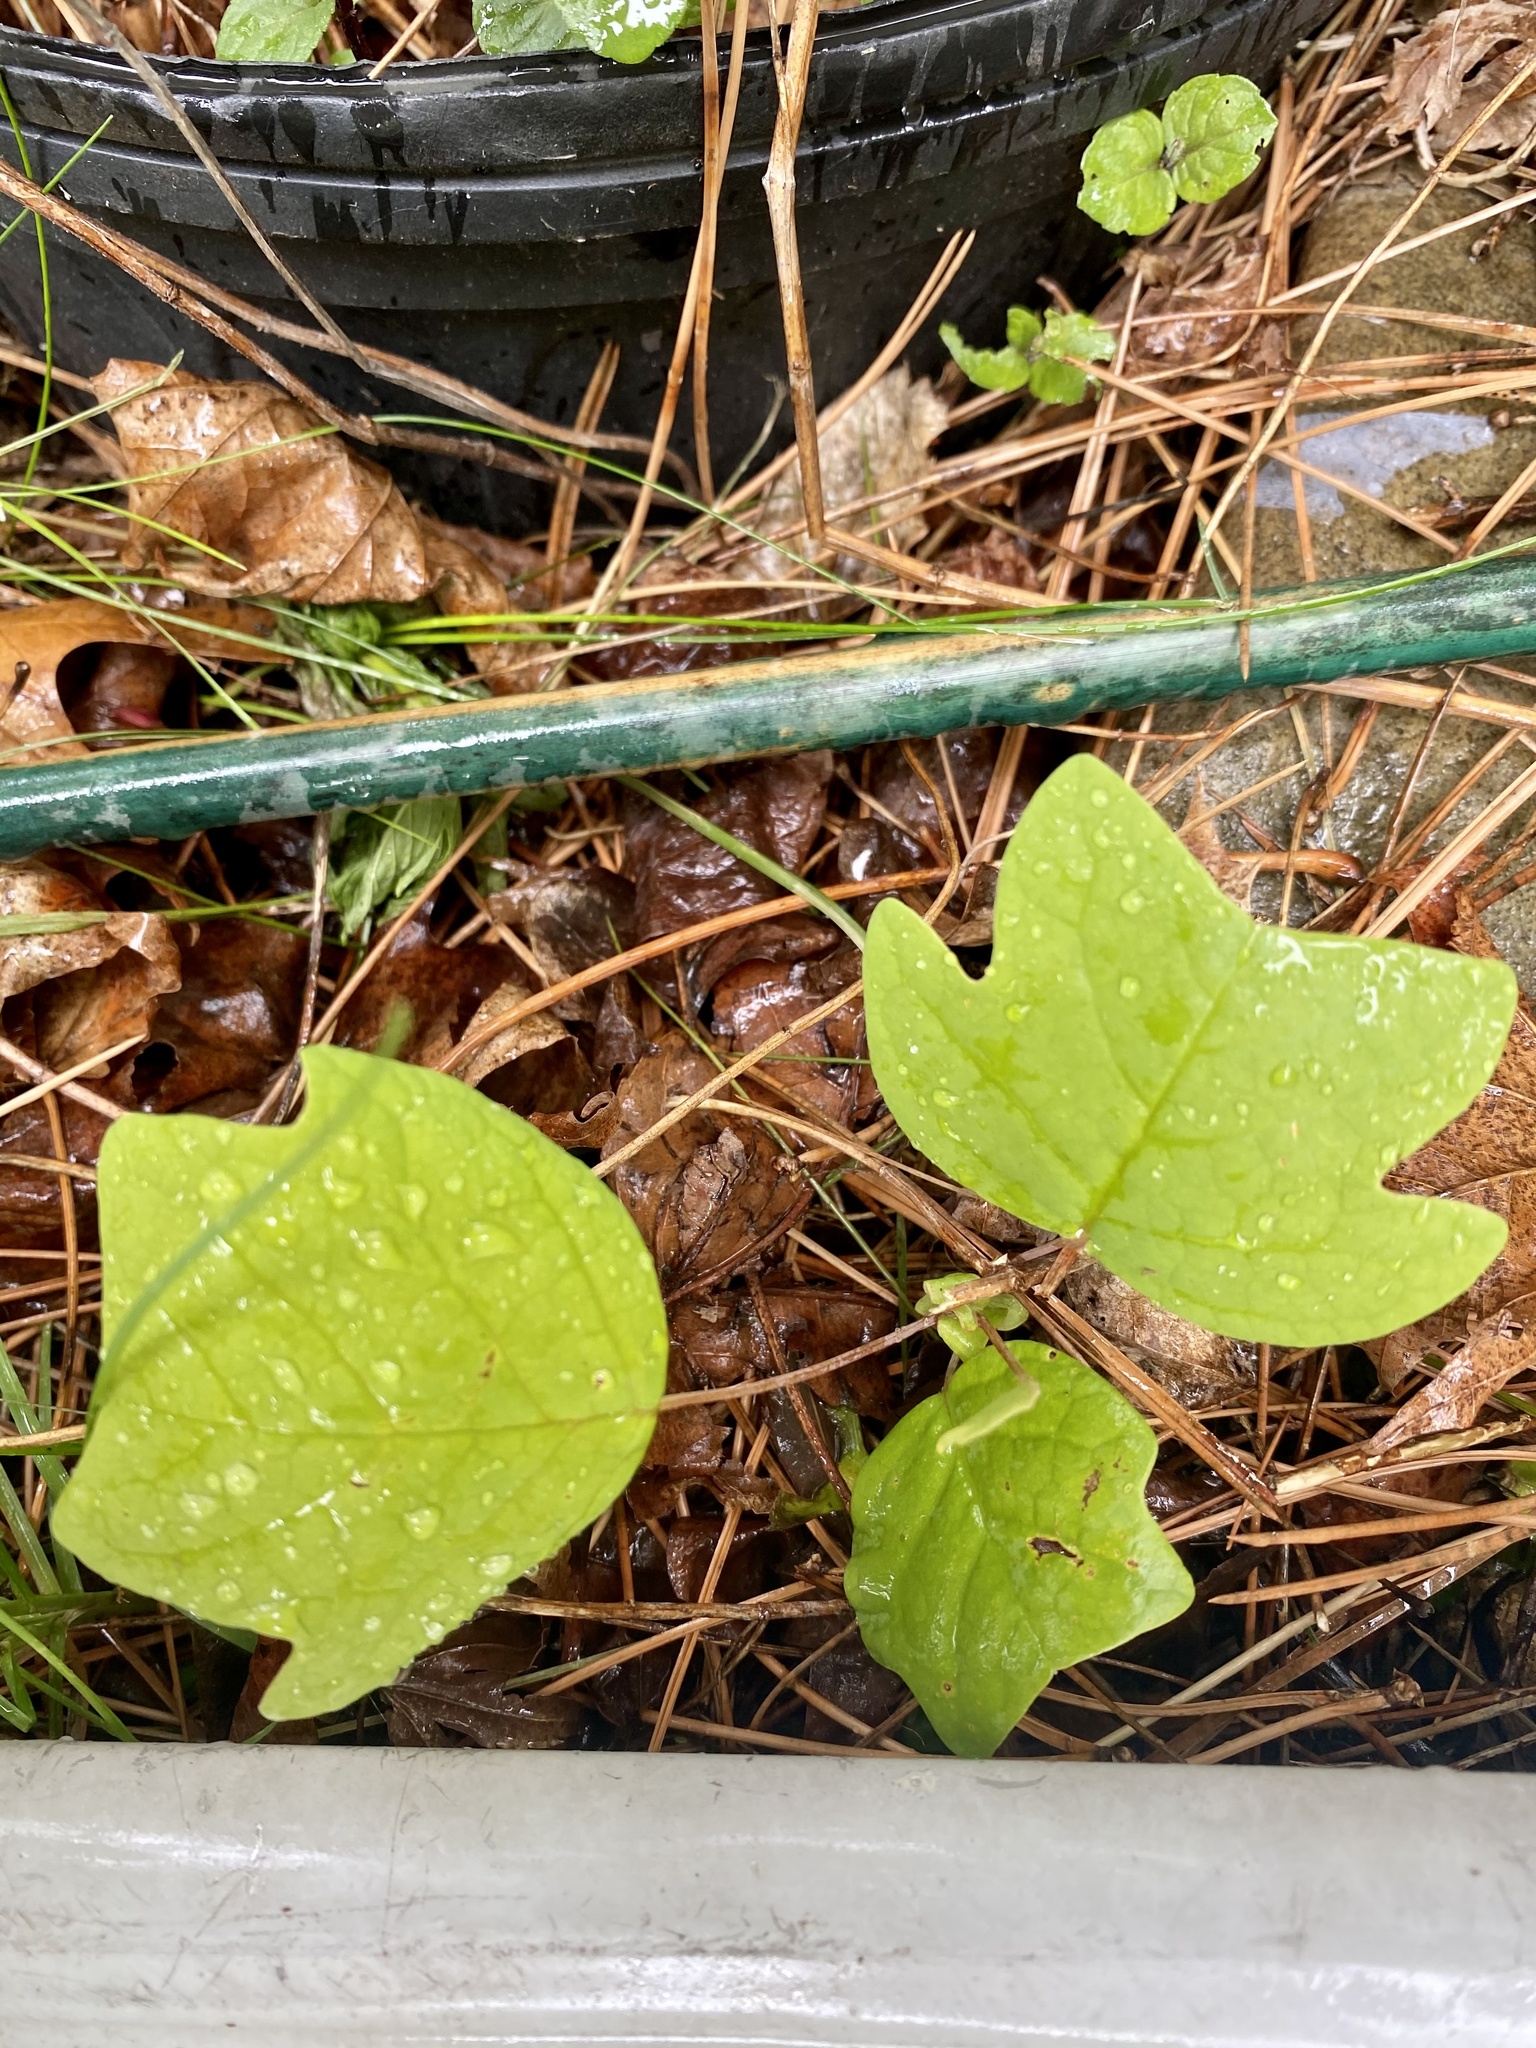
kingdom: Plantae
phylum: Tracheophyta
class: Magnoliopsida
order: Magnoliales
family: Magnoliaceae
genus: Liriodendron
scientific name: Liriodendron tulipifera
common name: Tulip tree
